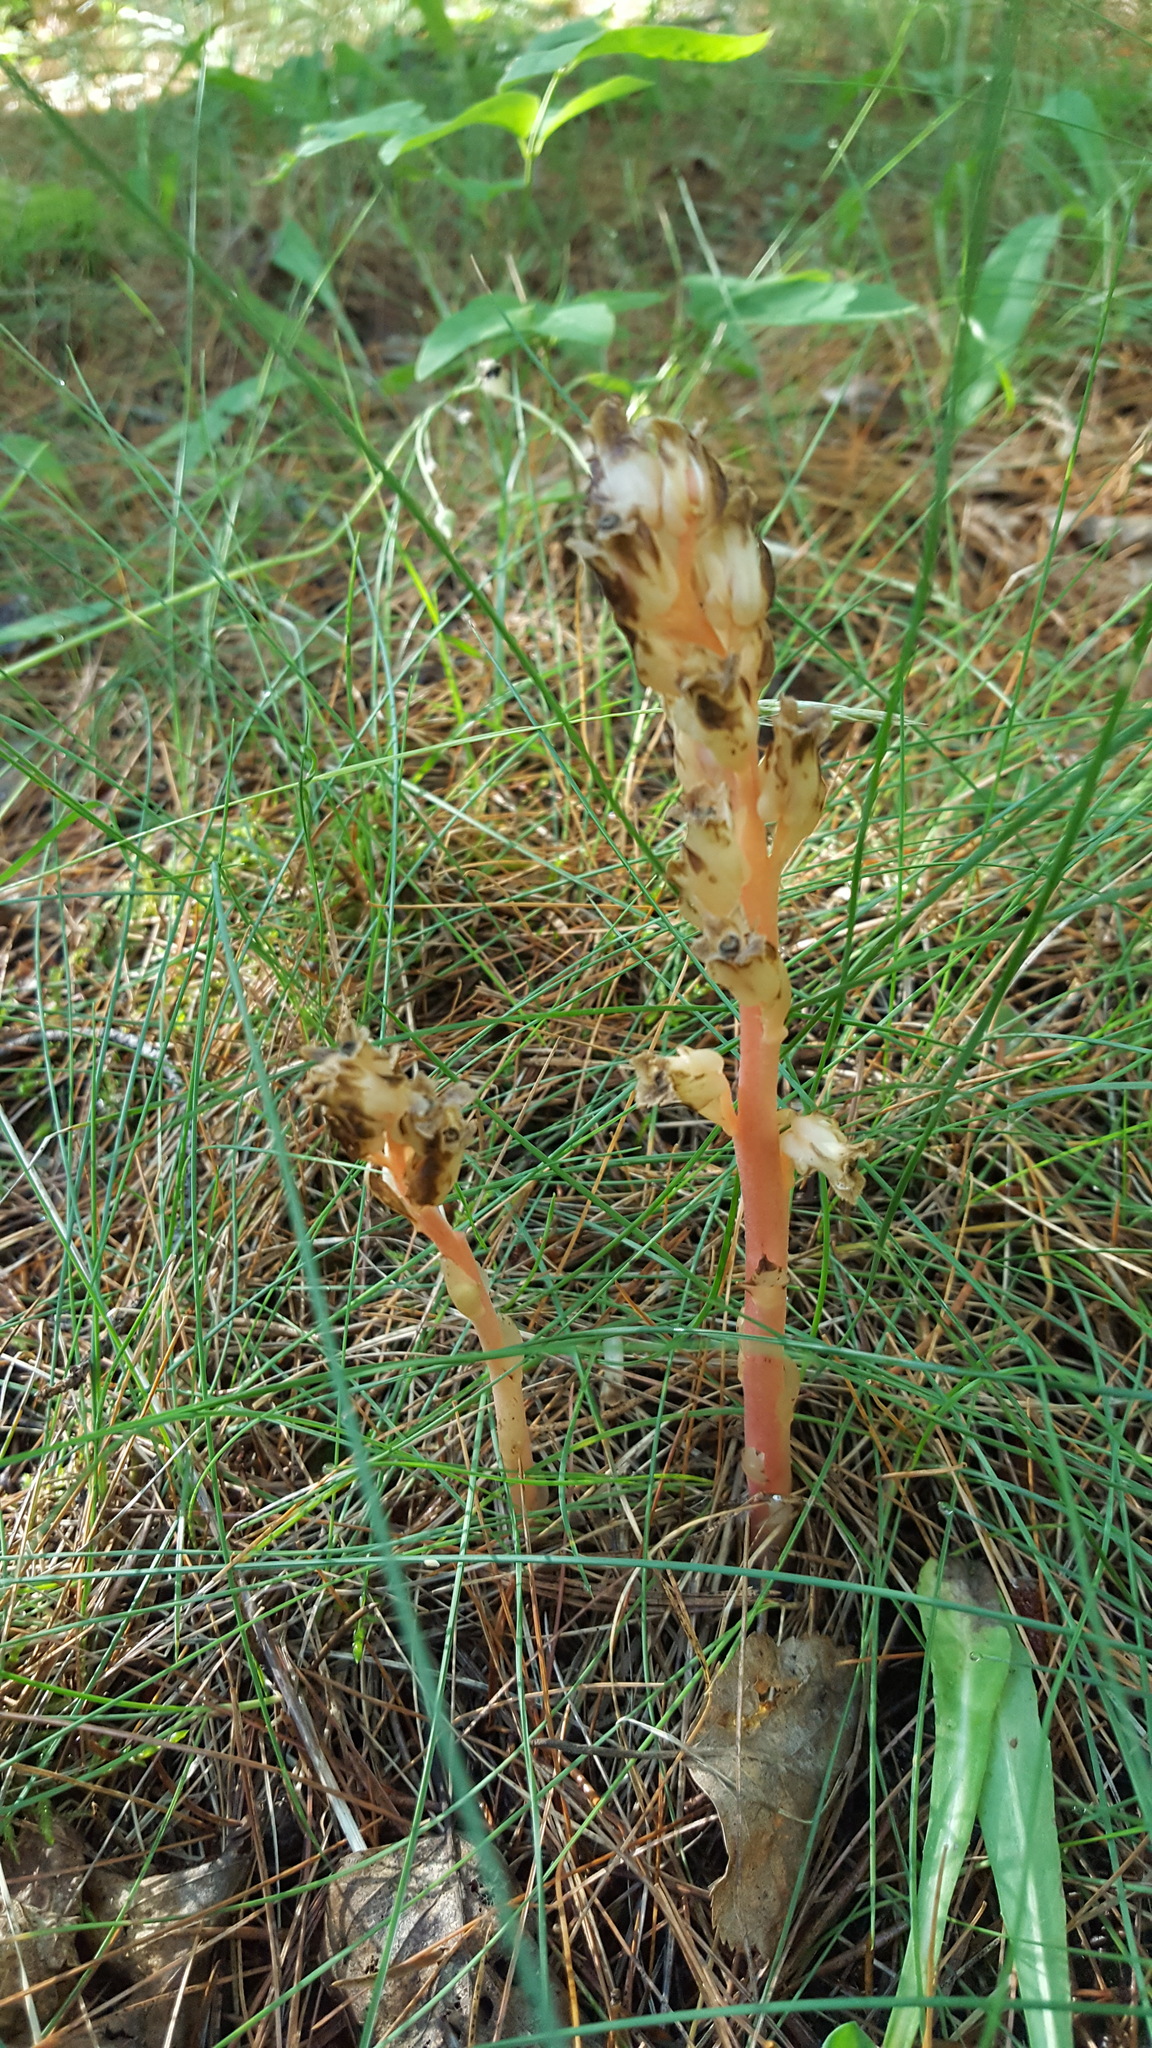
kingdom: Plantae
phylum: Tracheophyta
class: Magnoliopsida
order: Ericales
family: Ericaceae
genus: Hypopitys
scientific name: Hypopitys monotropa
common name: Yellow bird's-nest
